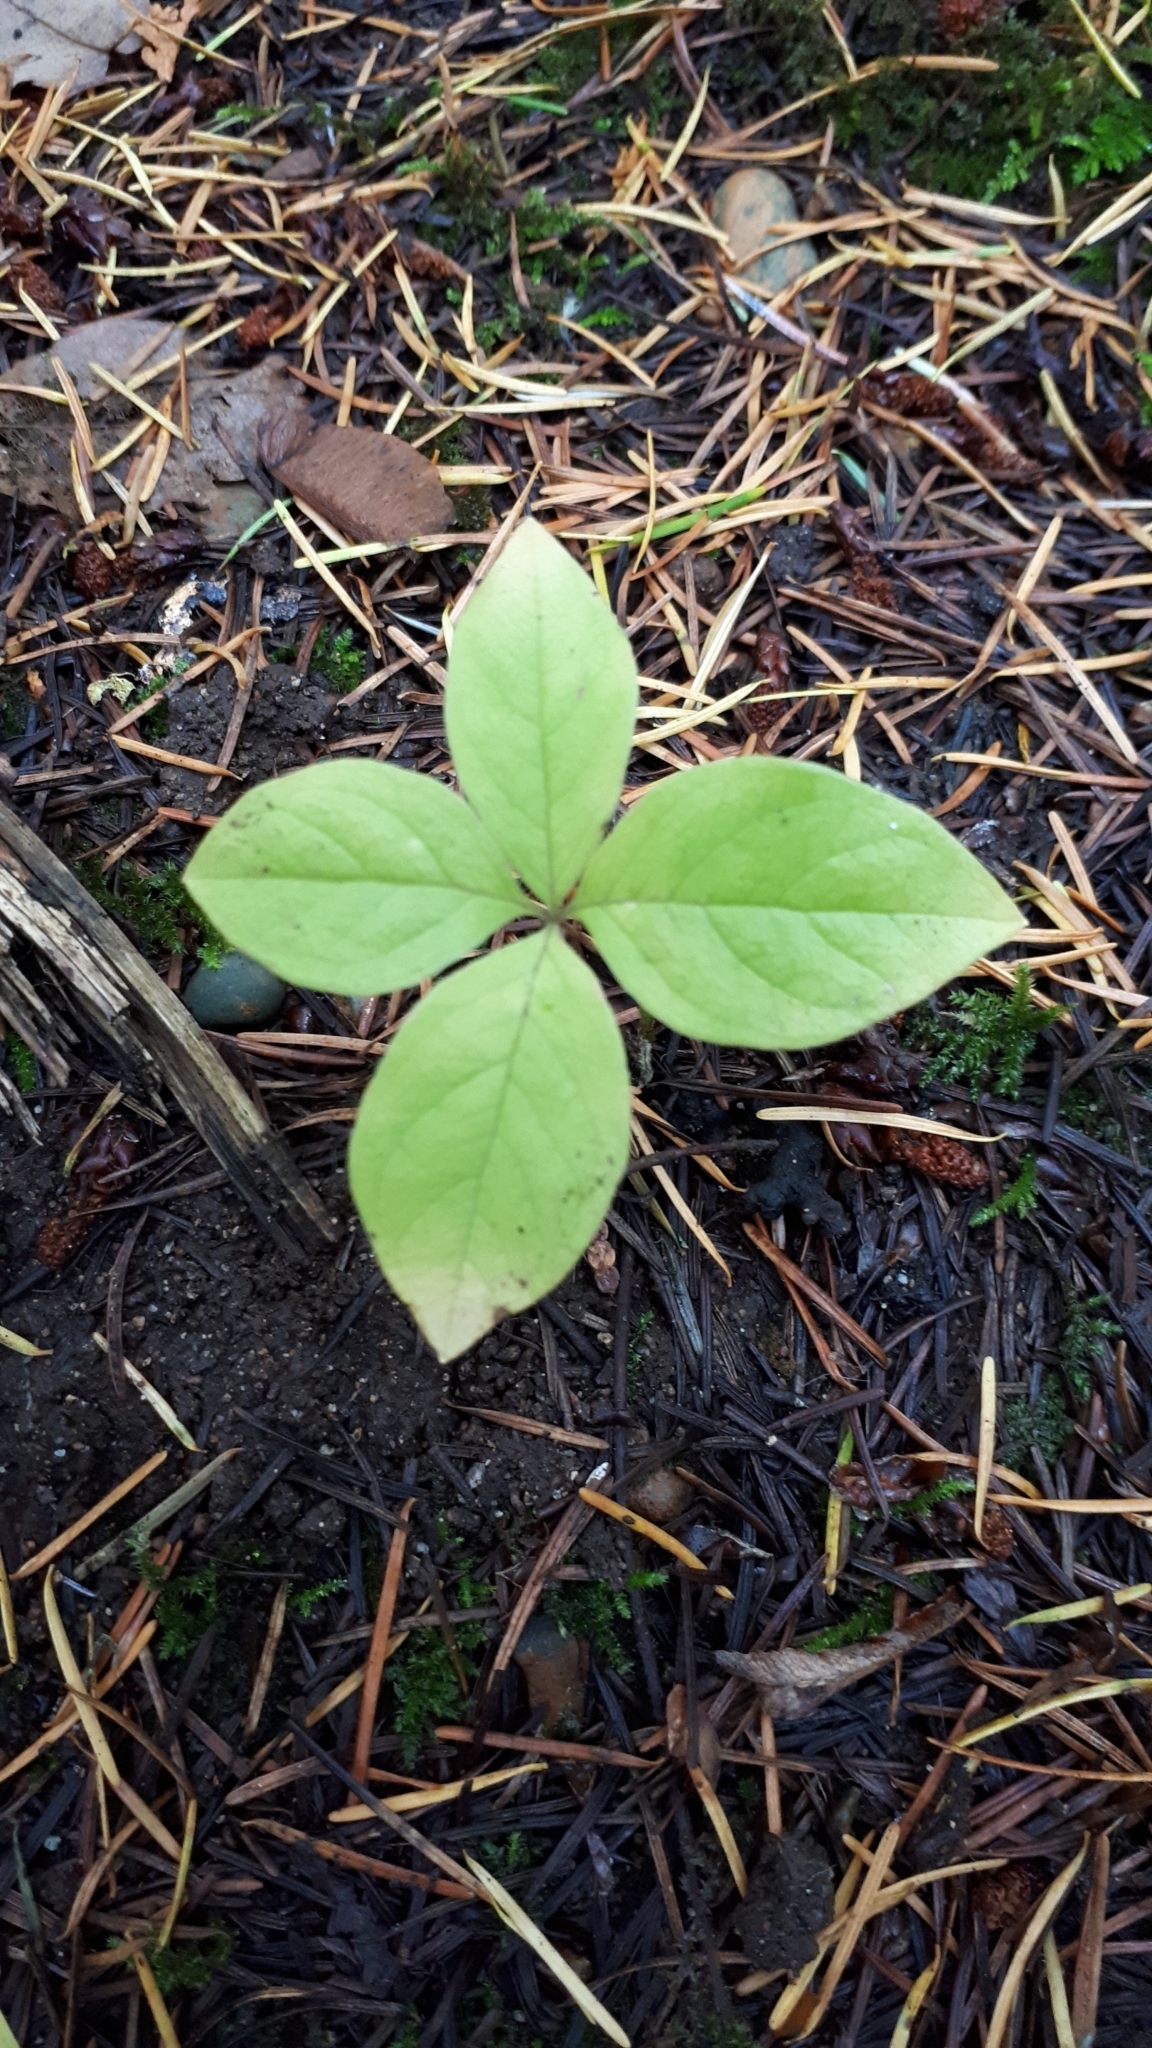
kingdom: Plantae
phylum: Tracheophyta
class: Magnoliopsida
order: Ericales
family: Primulaceae
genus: Lysimachia
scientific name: Lysimachia latifolia
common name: Pacific starflower
